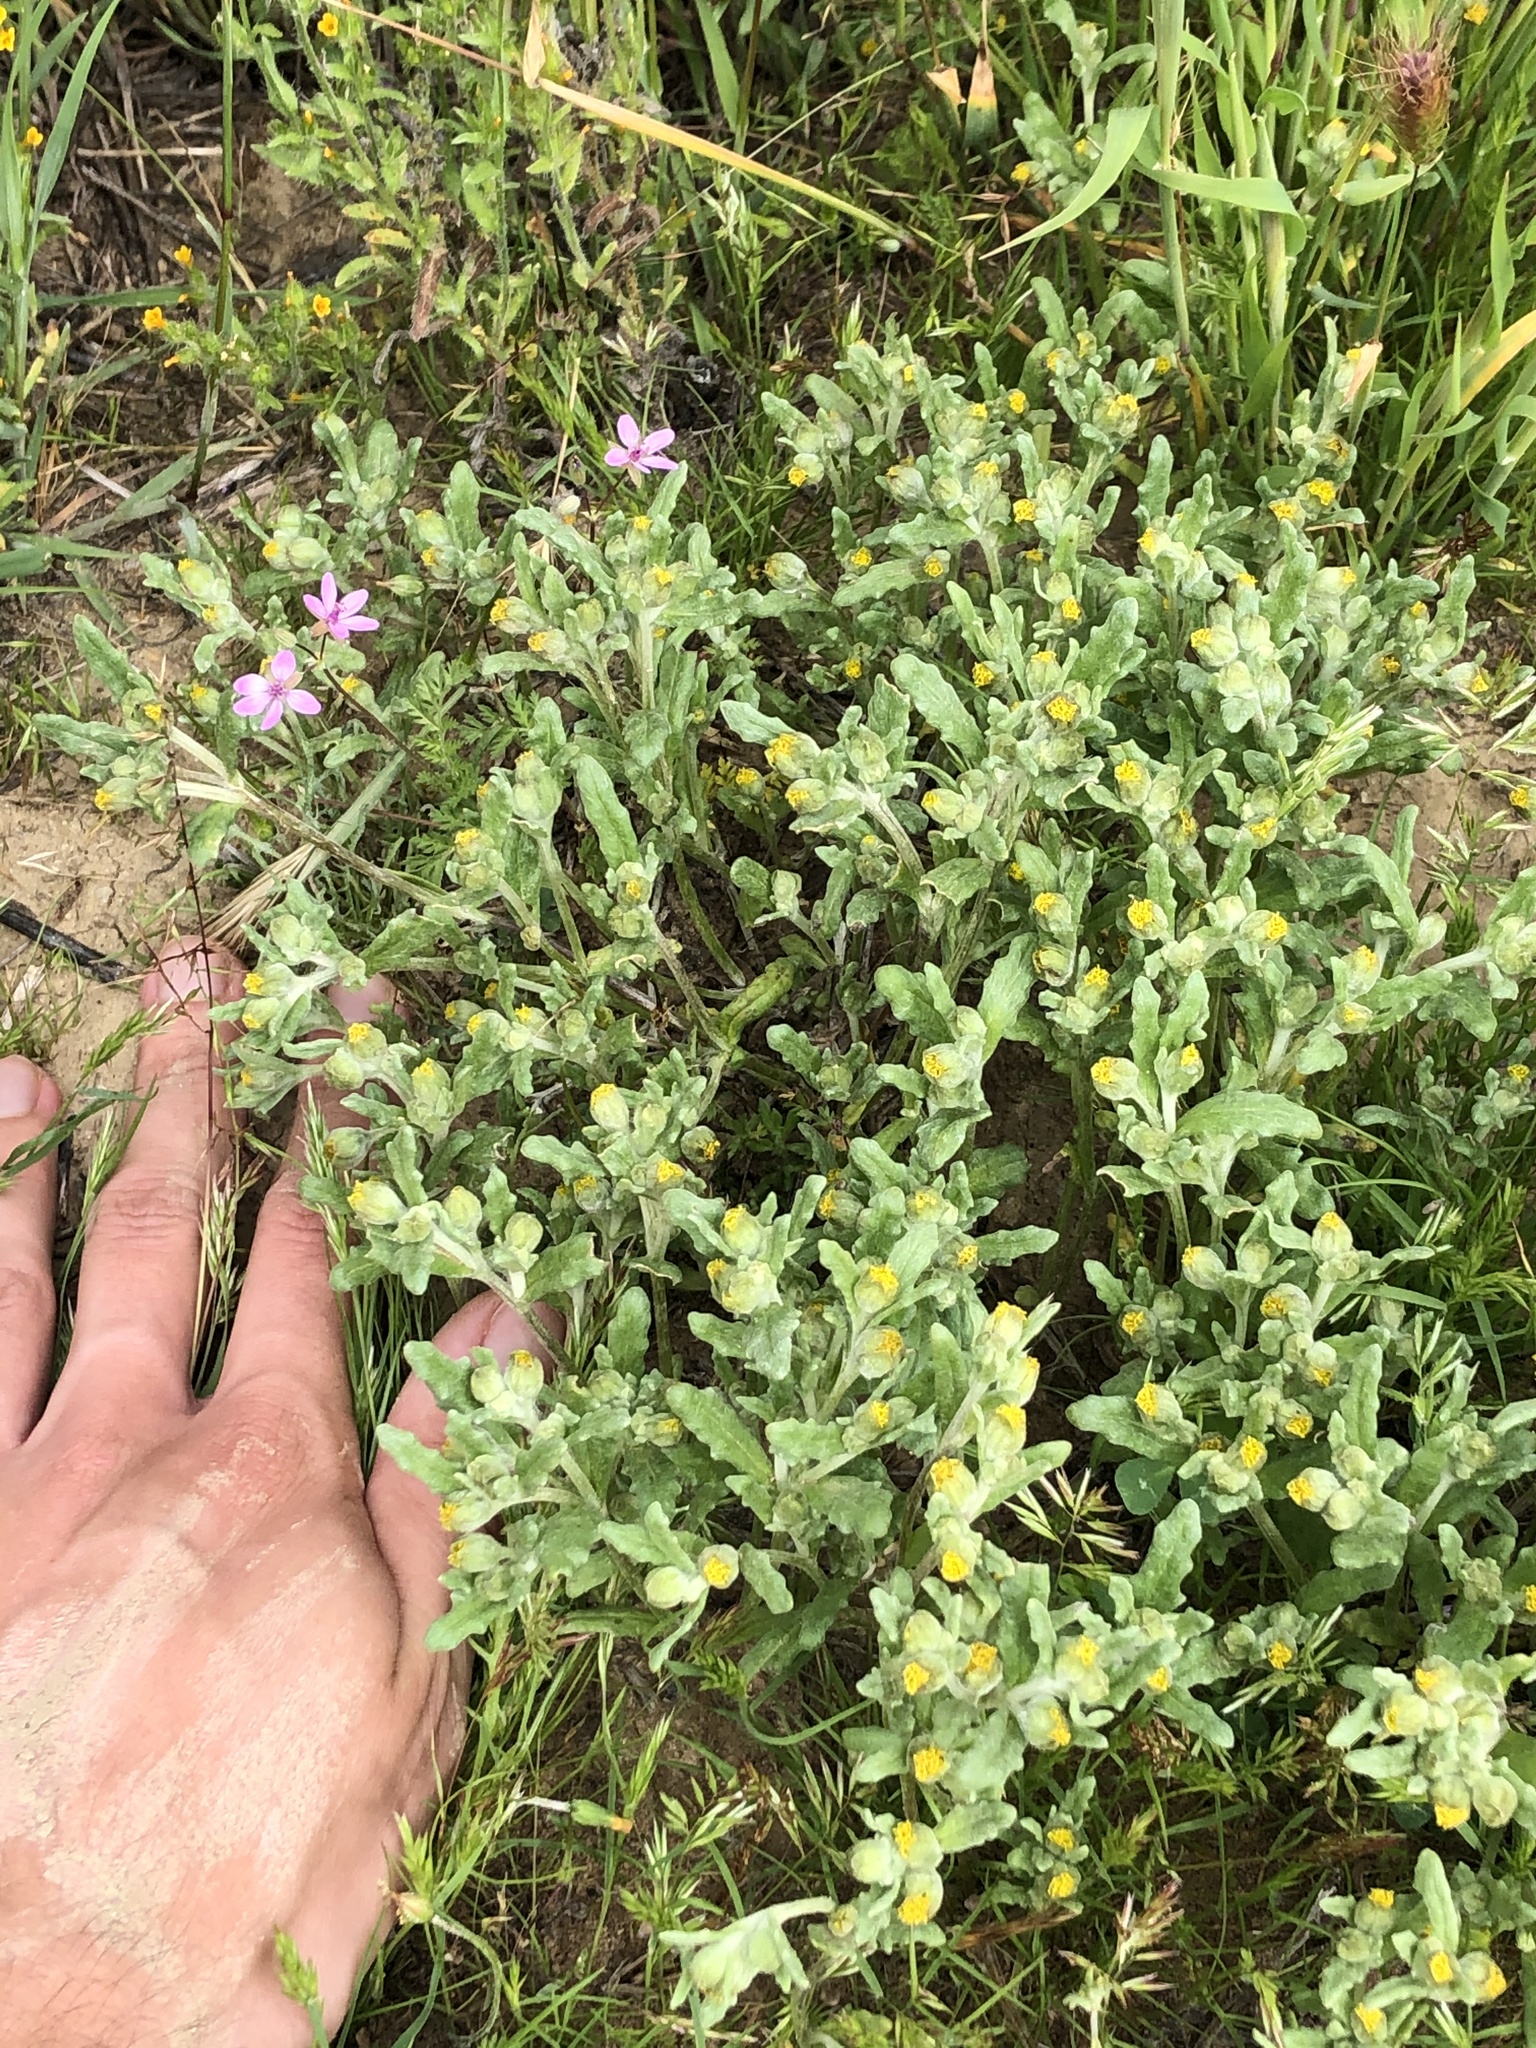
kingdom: Plantae
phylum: Tracheophyta
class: Magnoliopsida
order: Asterales
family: Asteraceae
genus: Monolopia
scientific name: Monolopia congdonii
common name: San joaquin woolly-threads
